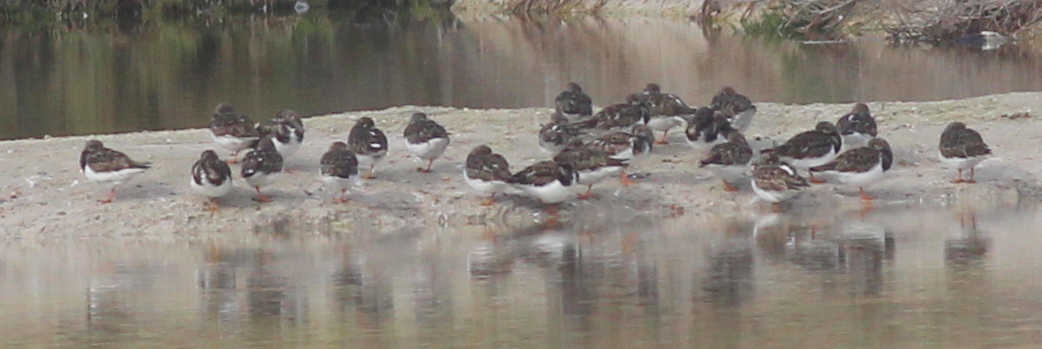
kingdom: Animalia
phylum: Chordata
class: Aves
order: Charadriiformes
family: Scolopacidae
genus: Arenaria
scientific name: Arenaria interpres
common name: Ruddy turnstone
